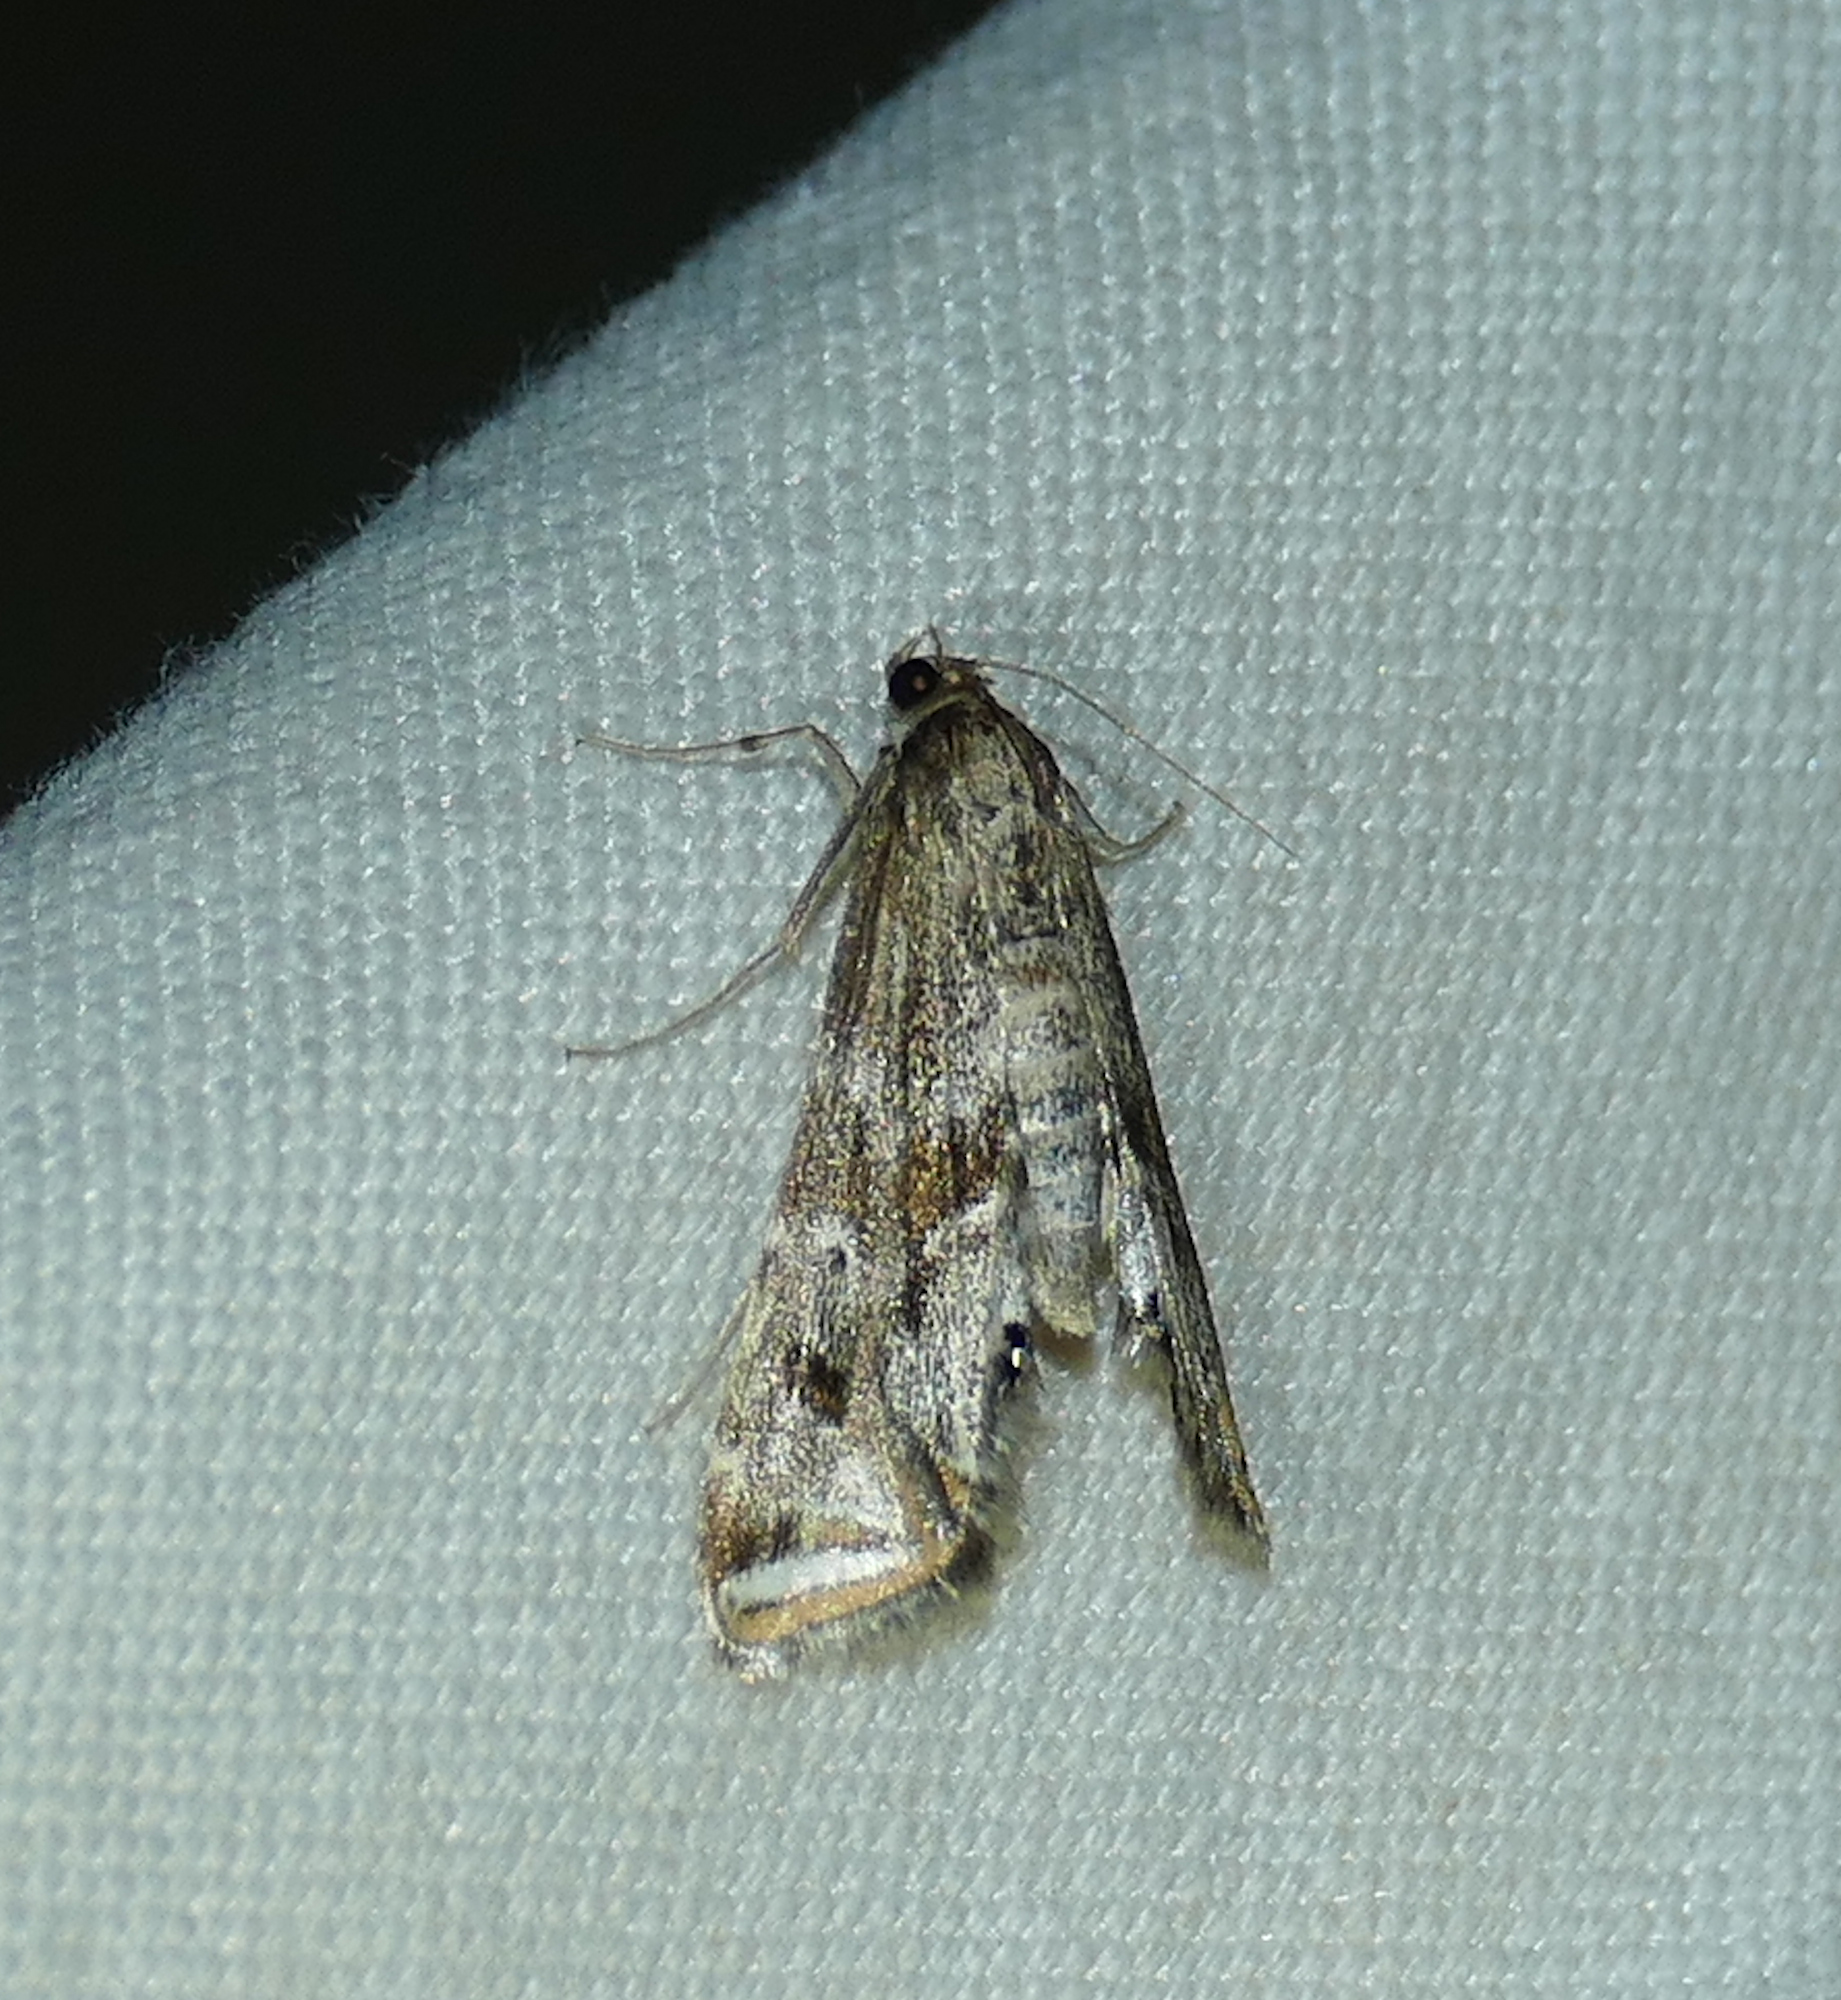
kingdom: Animalia
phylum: Arthropoda
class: Insecta
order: Lepidoptera
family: Crambidae
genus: Petrophila
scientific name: Petrophila longipennis
